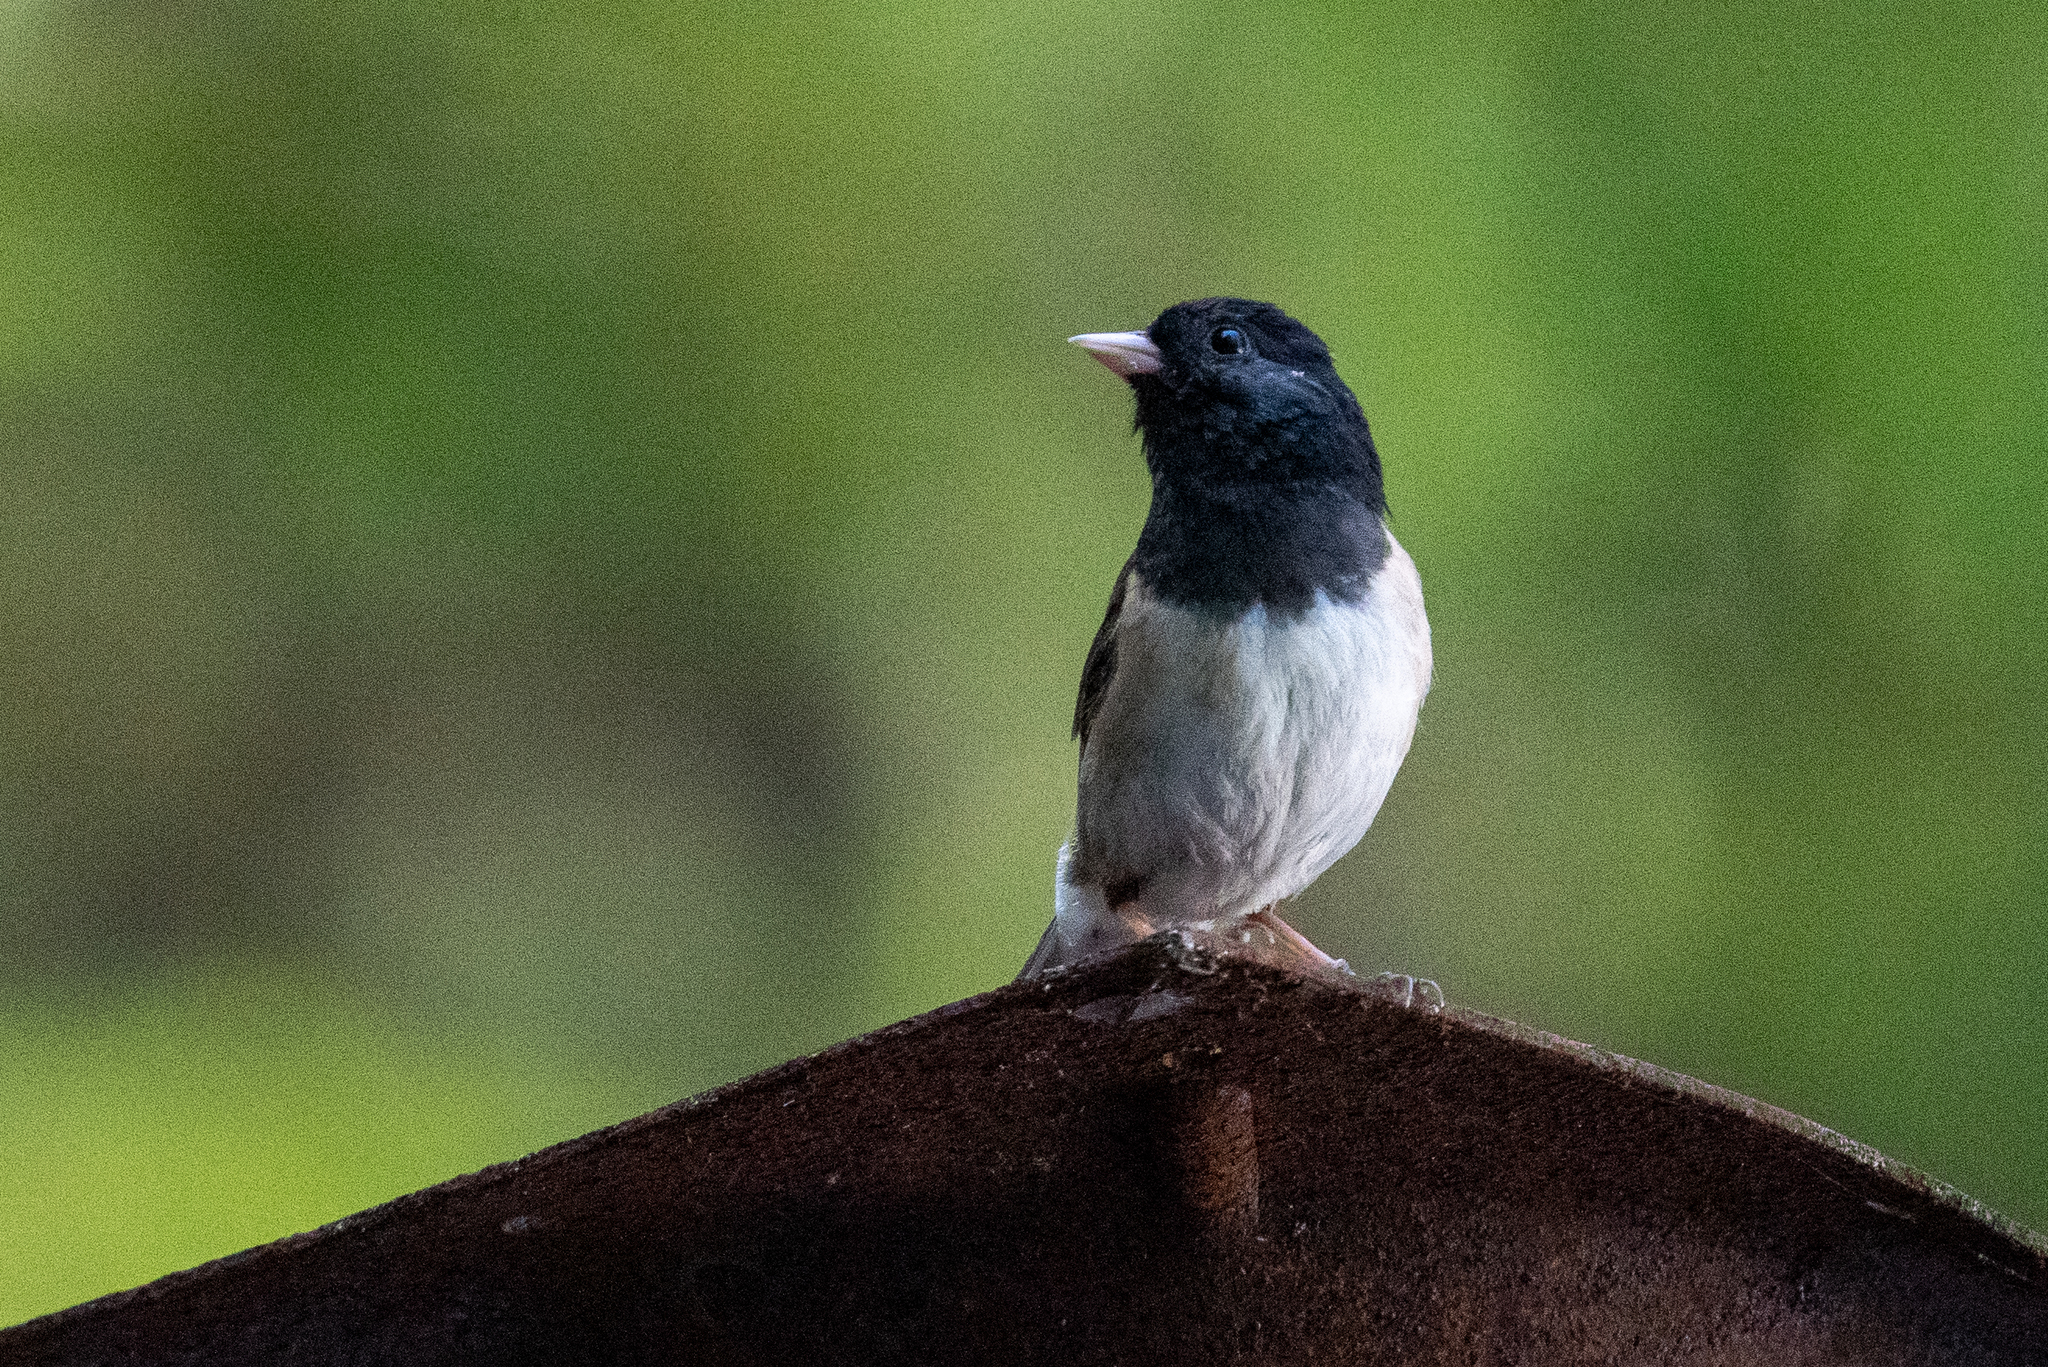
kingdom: Animalia
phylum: Chordata
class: Aves
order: Passeriformes
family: Passerellidae
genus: Junco
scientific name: Junco hyemalis
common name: Dark-eyed junco
